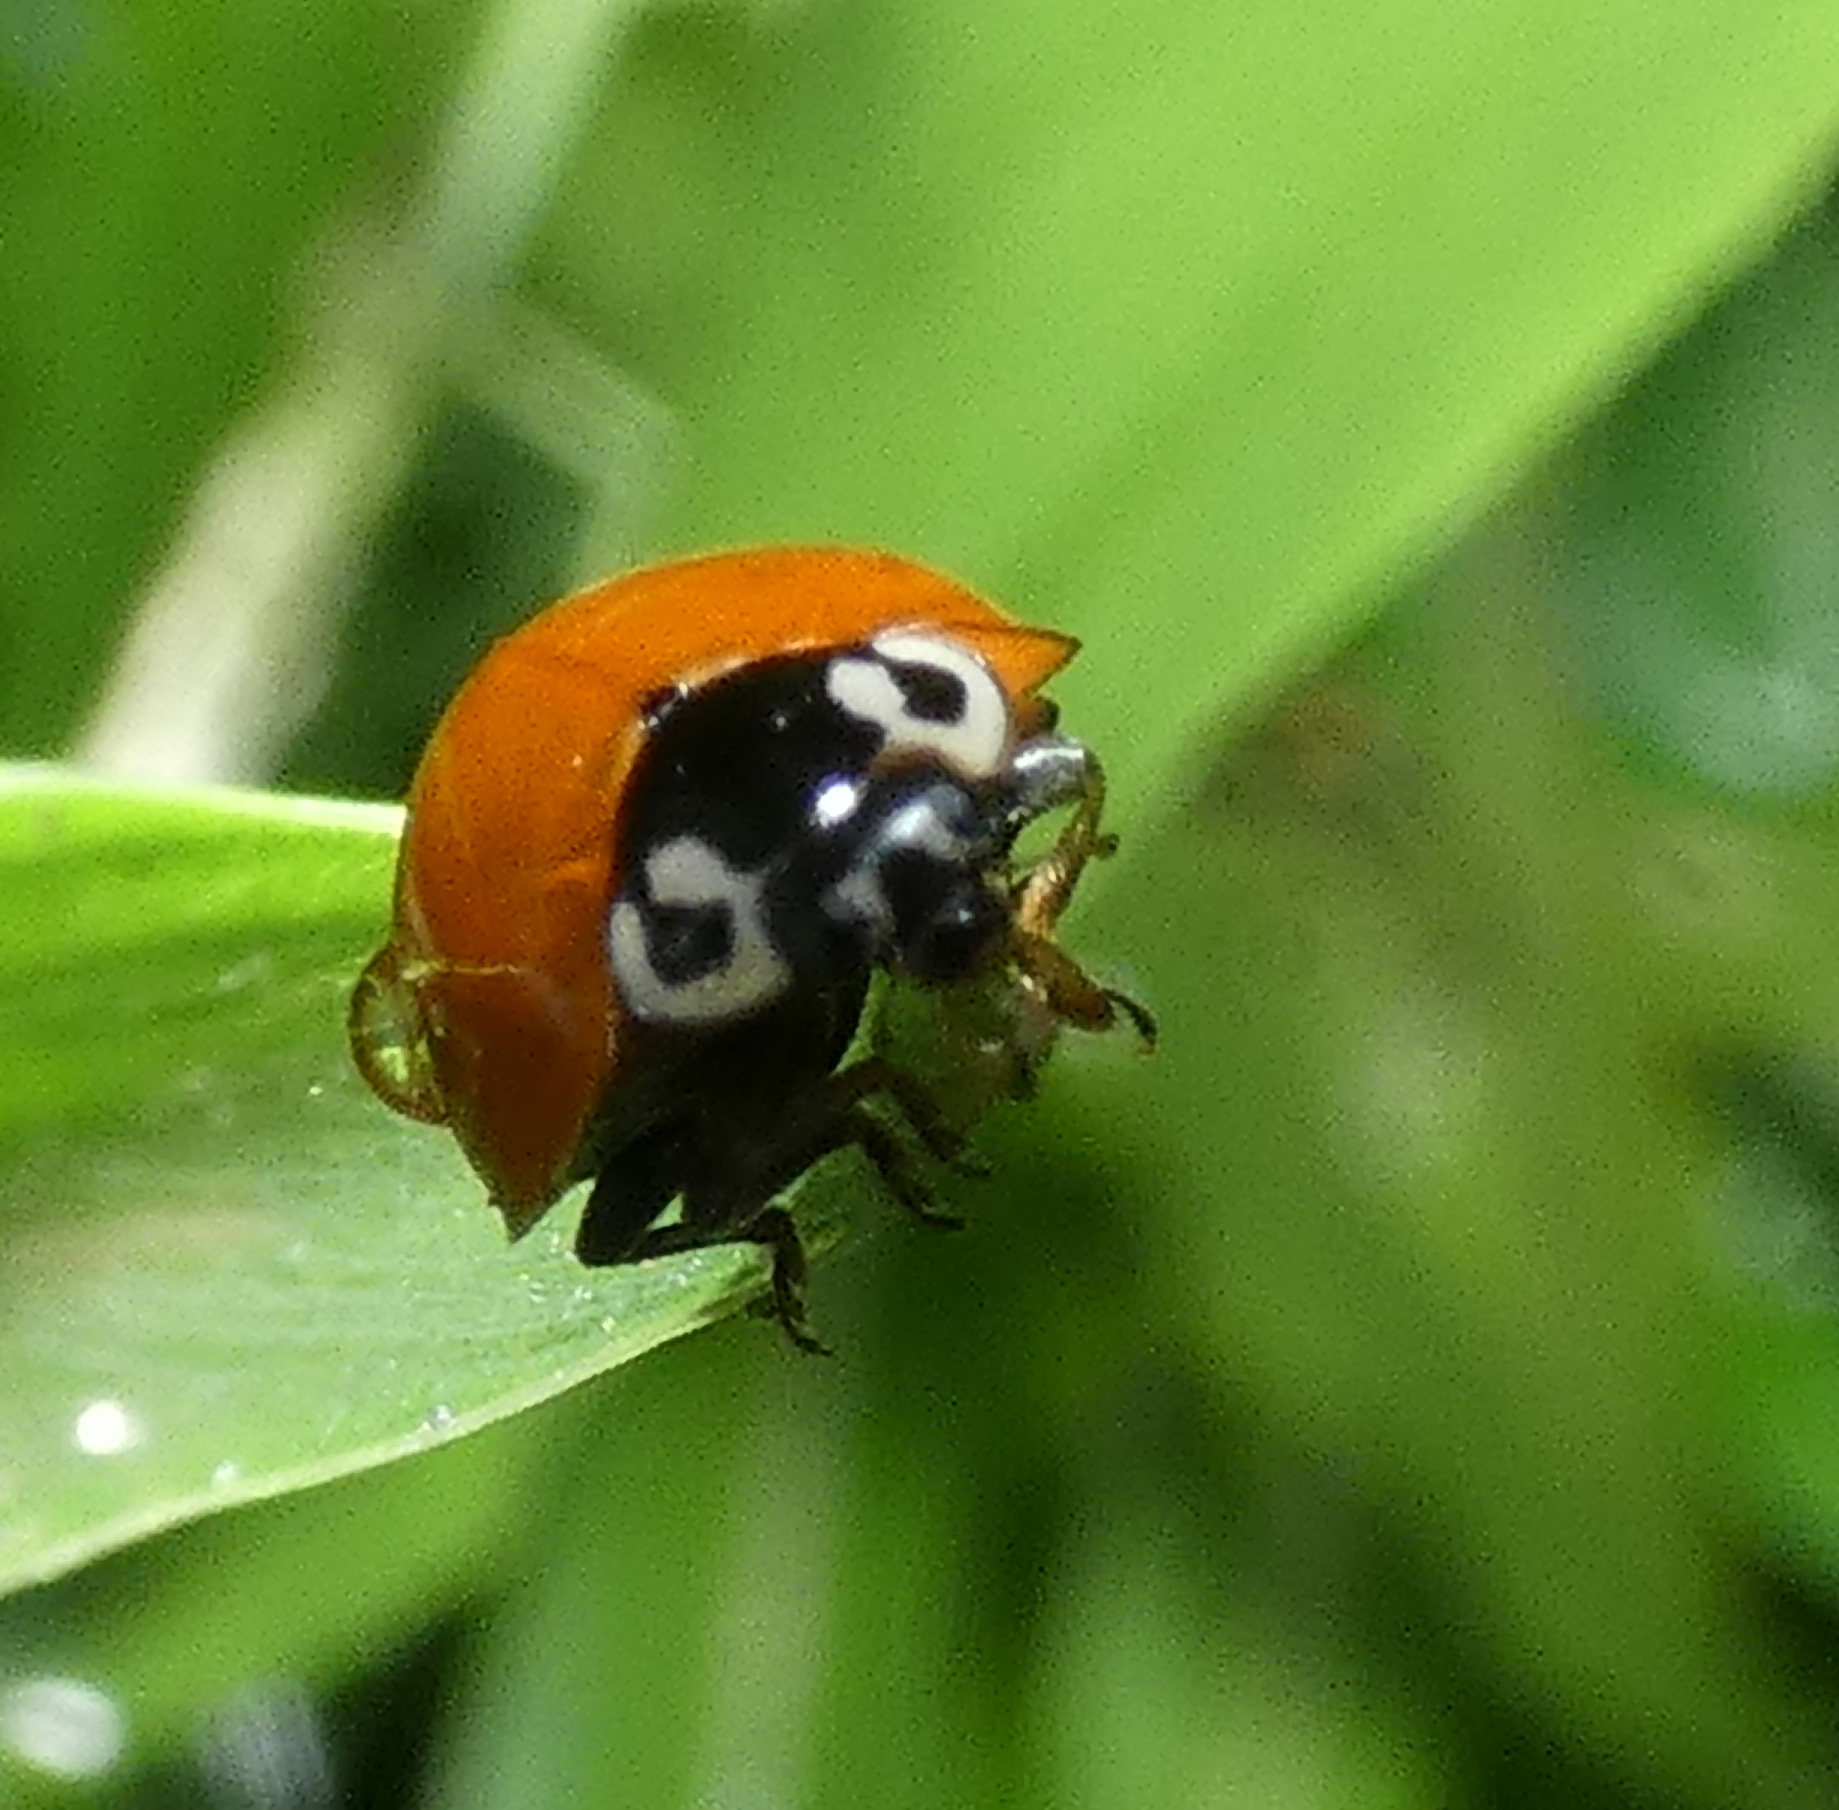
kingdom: Animalia
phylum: Arthropoda
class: Insecta
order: Coleoptera
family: Coccinellidae
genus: Cycloneda
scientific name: Cycloneda sanguinea
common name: Ladybird beetle
